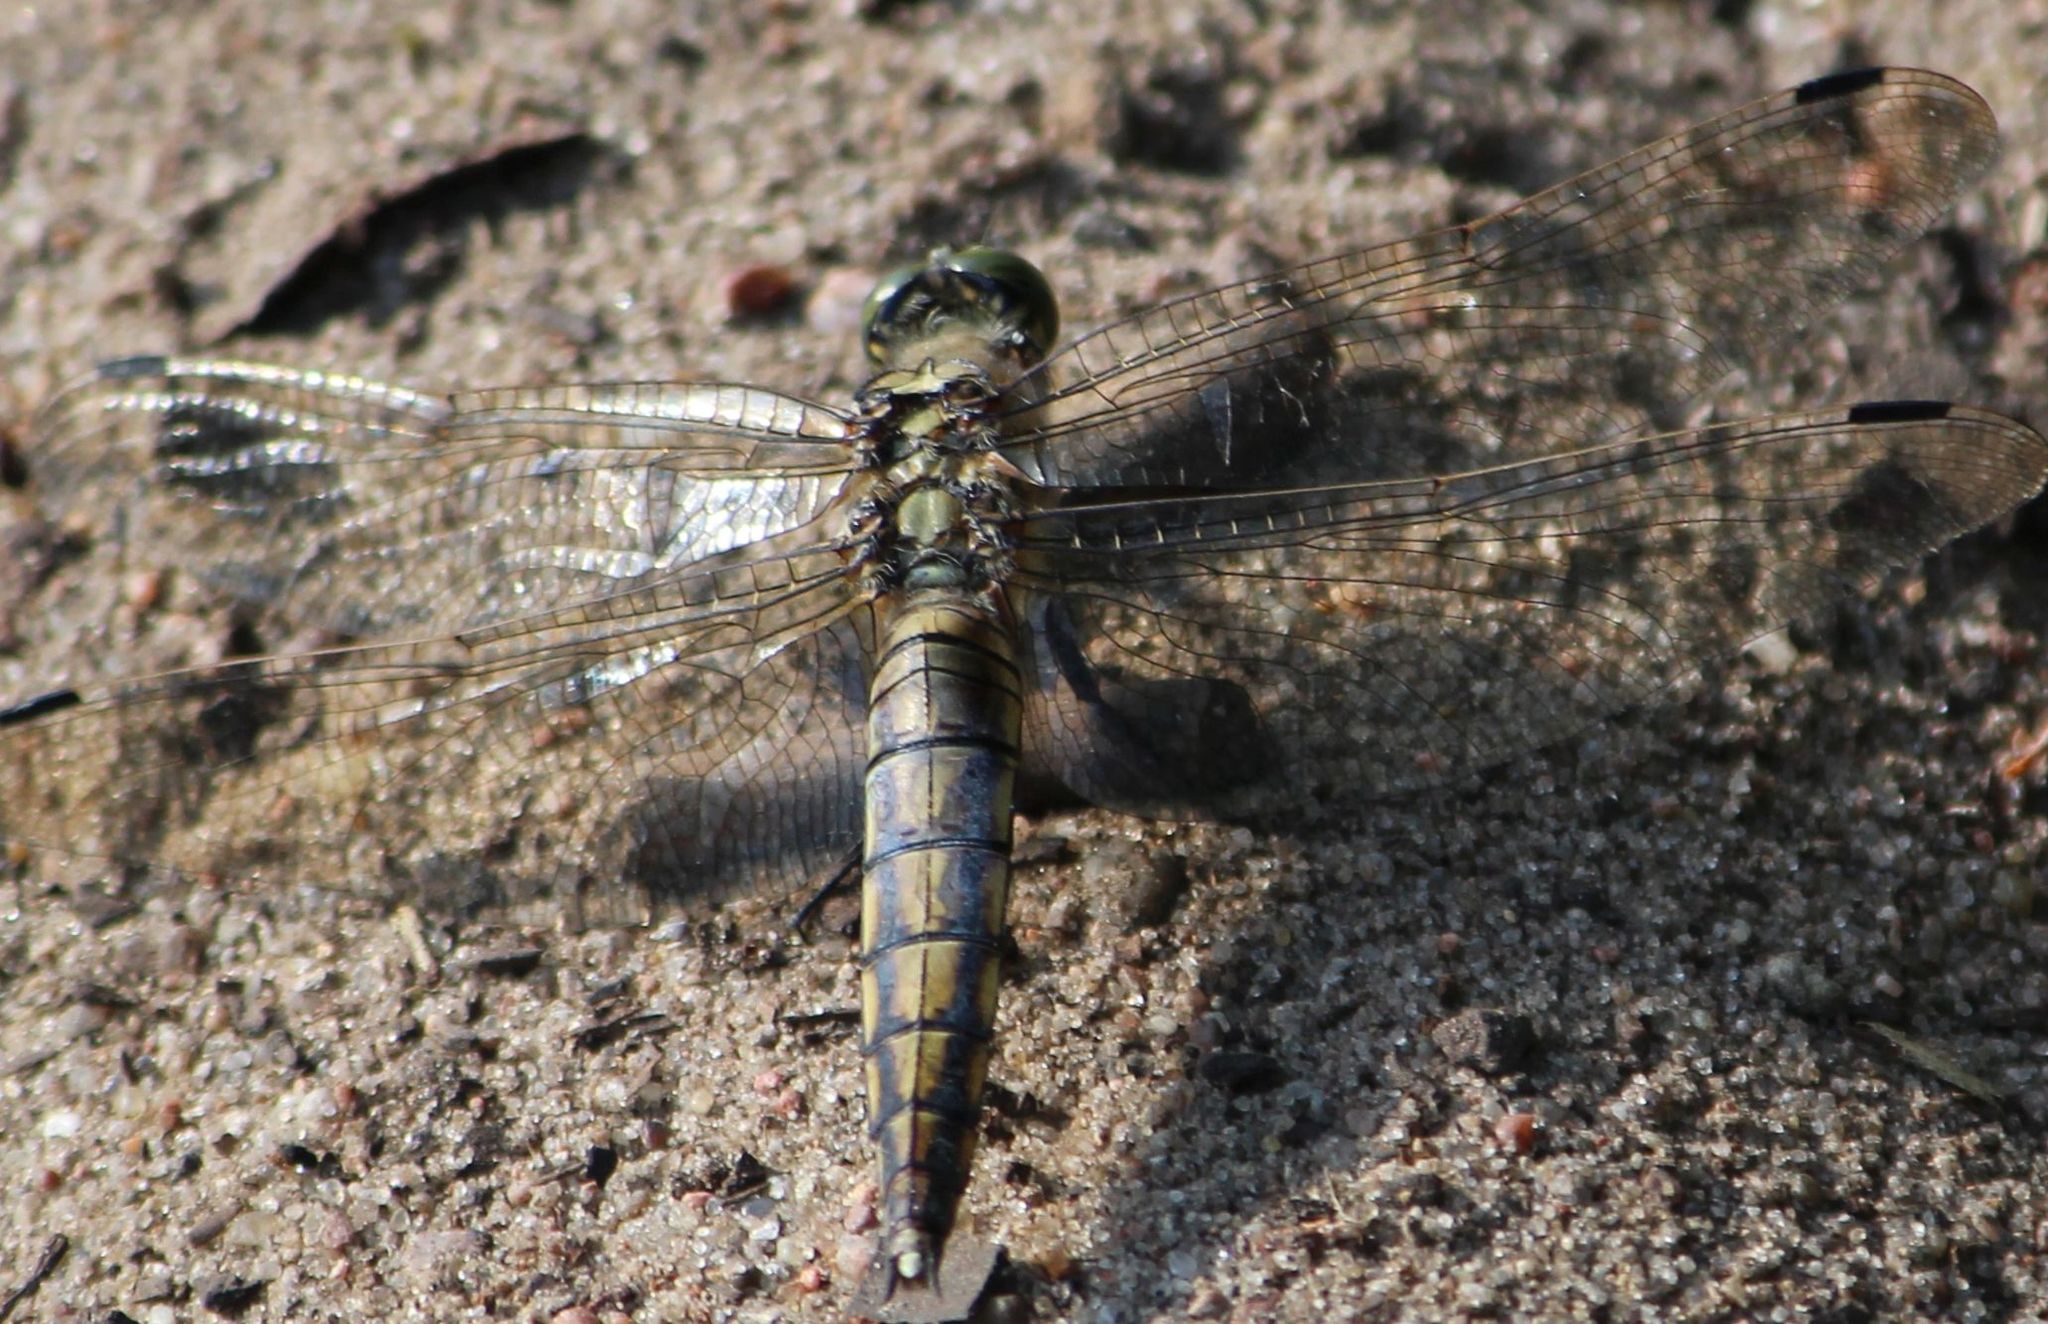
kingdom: Animalia
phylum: Arthropoda
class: Insecta
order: Odonata
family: Libellulidae
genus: Orthetrum
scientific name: Orthetrum cancellatum
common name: Black-tailed skimmer
